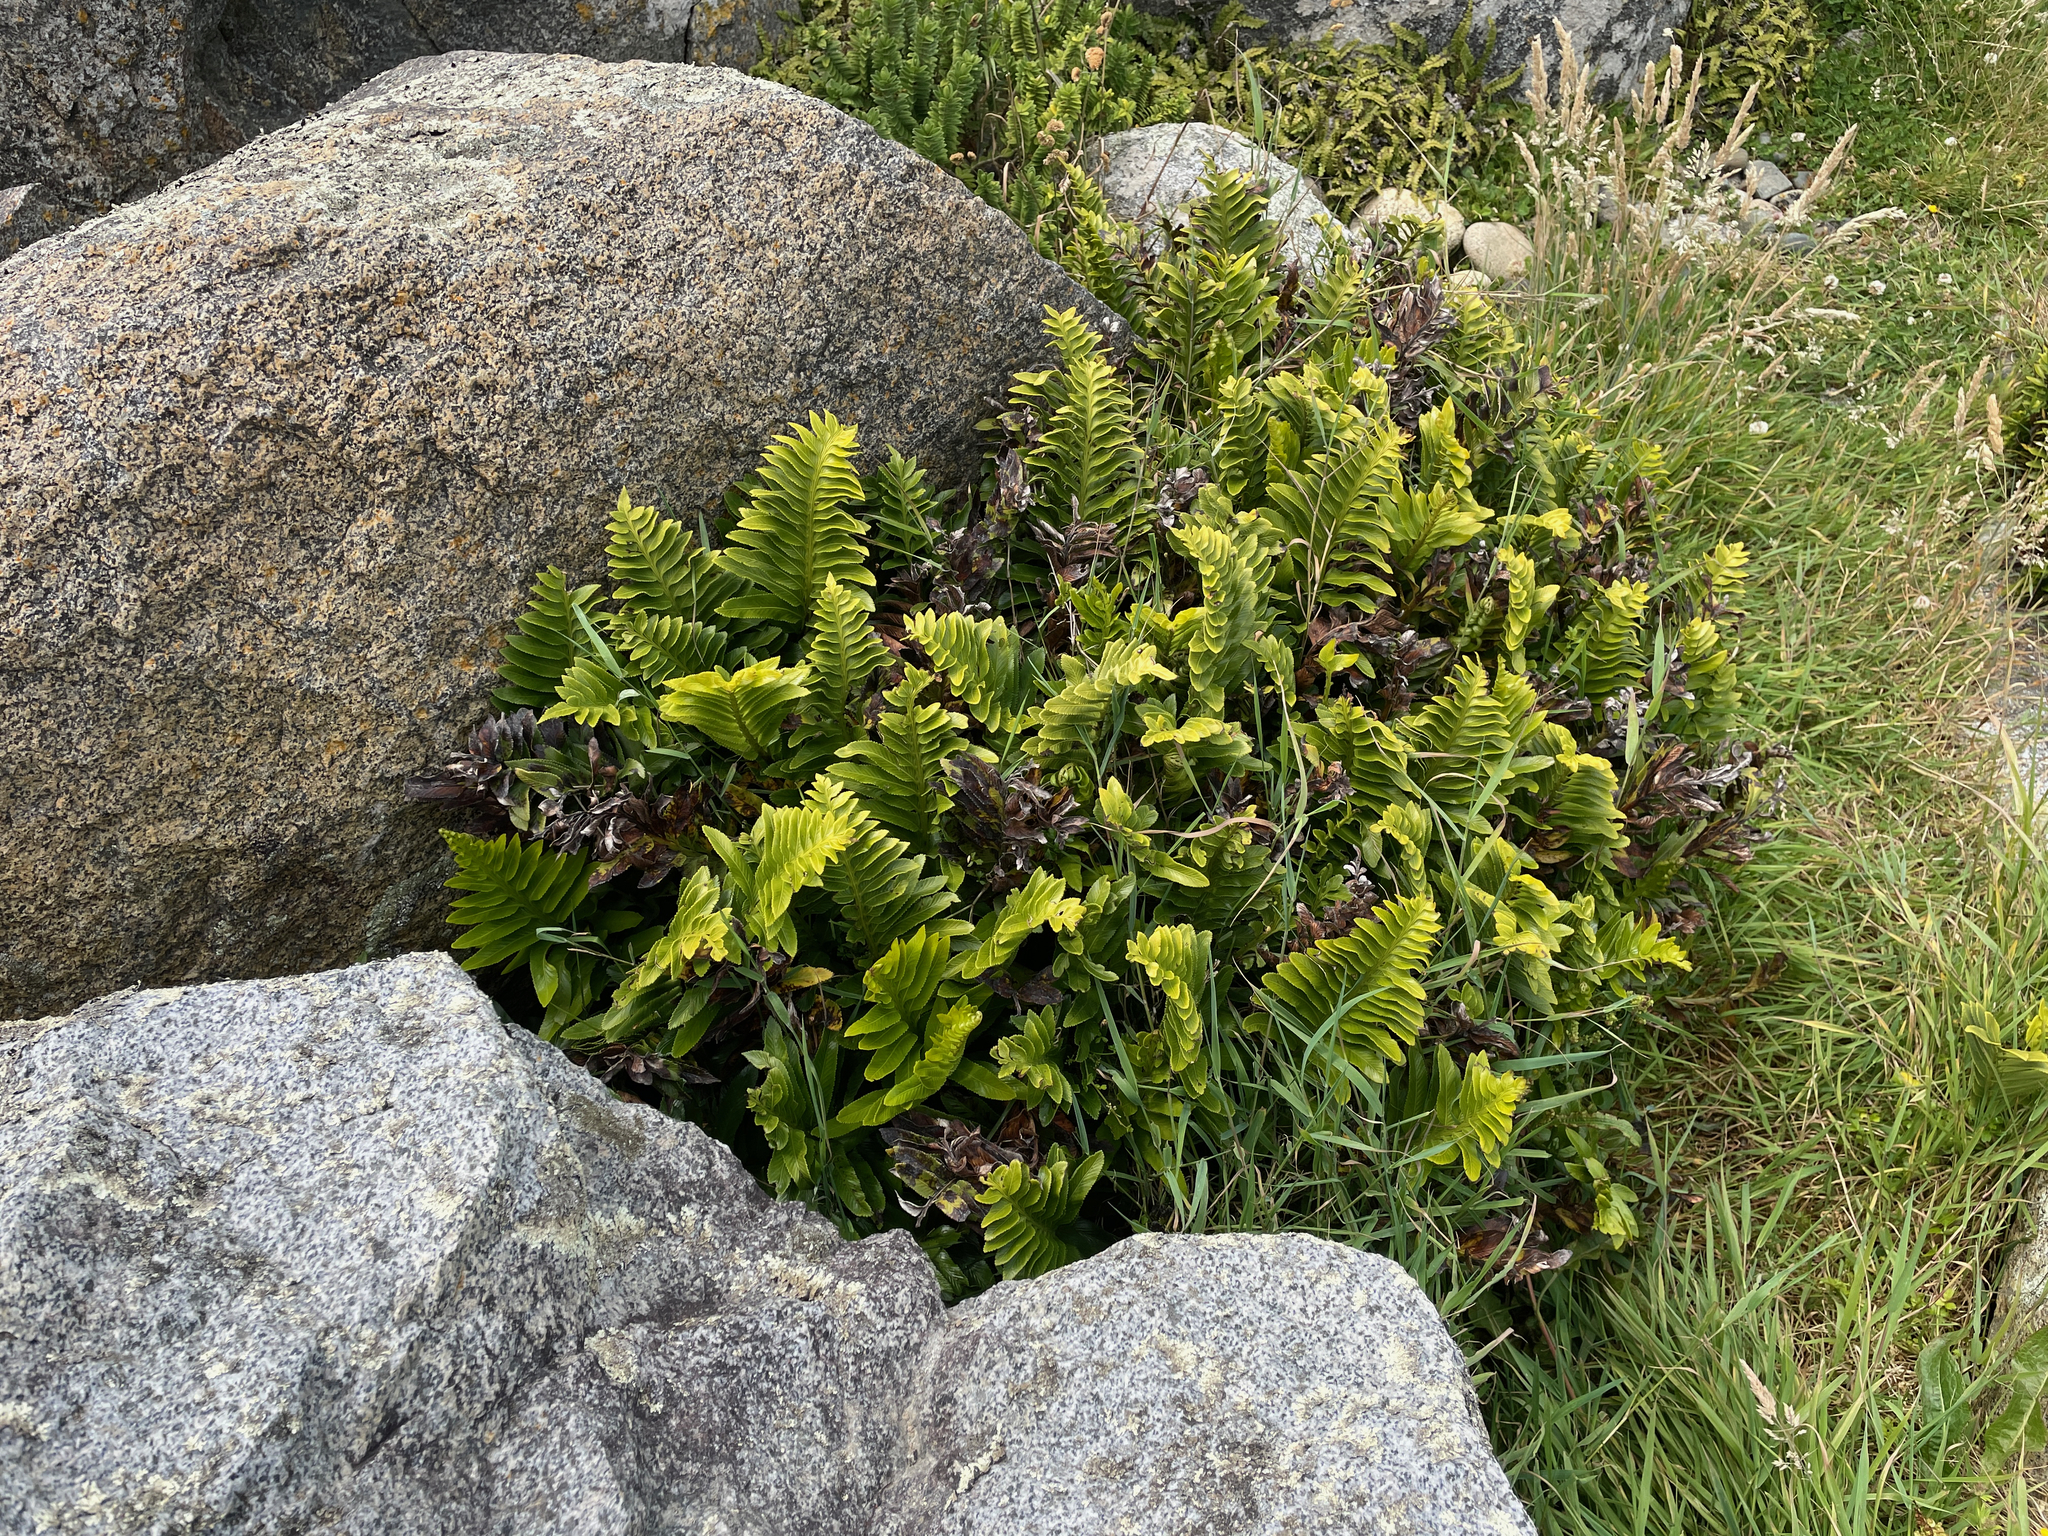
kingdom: Plantae
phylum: Tracheophyta
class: Polypodiopsida
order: Polypodiales
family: Aspleniaceae
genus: Asplenium
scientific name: Asplenium obtusatum
